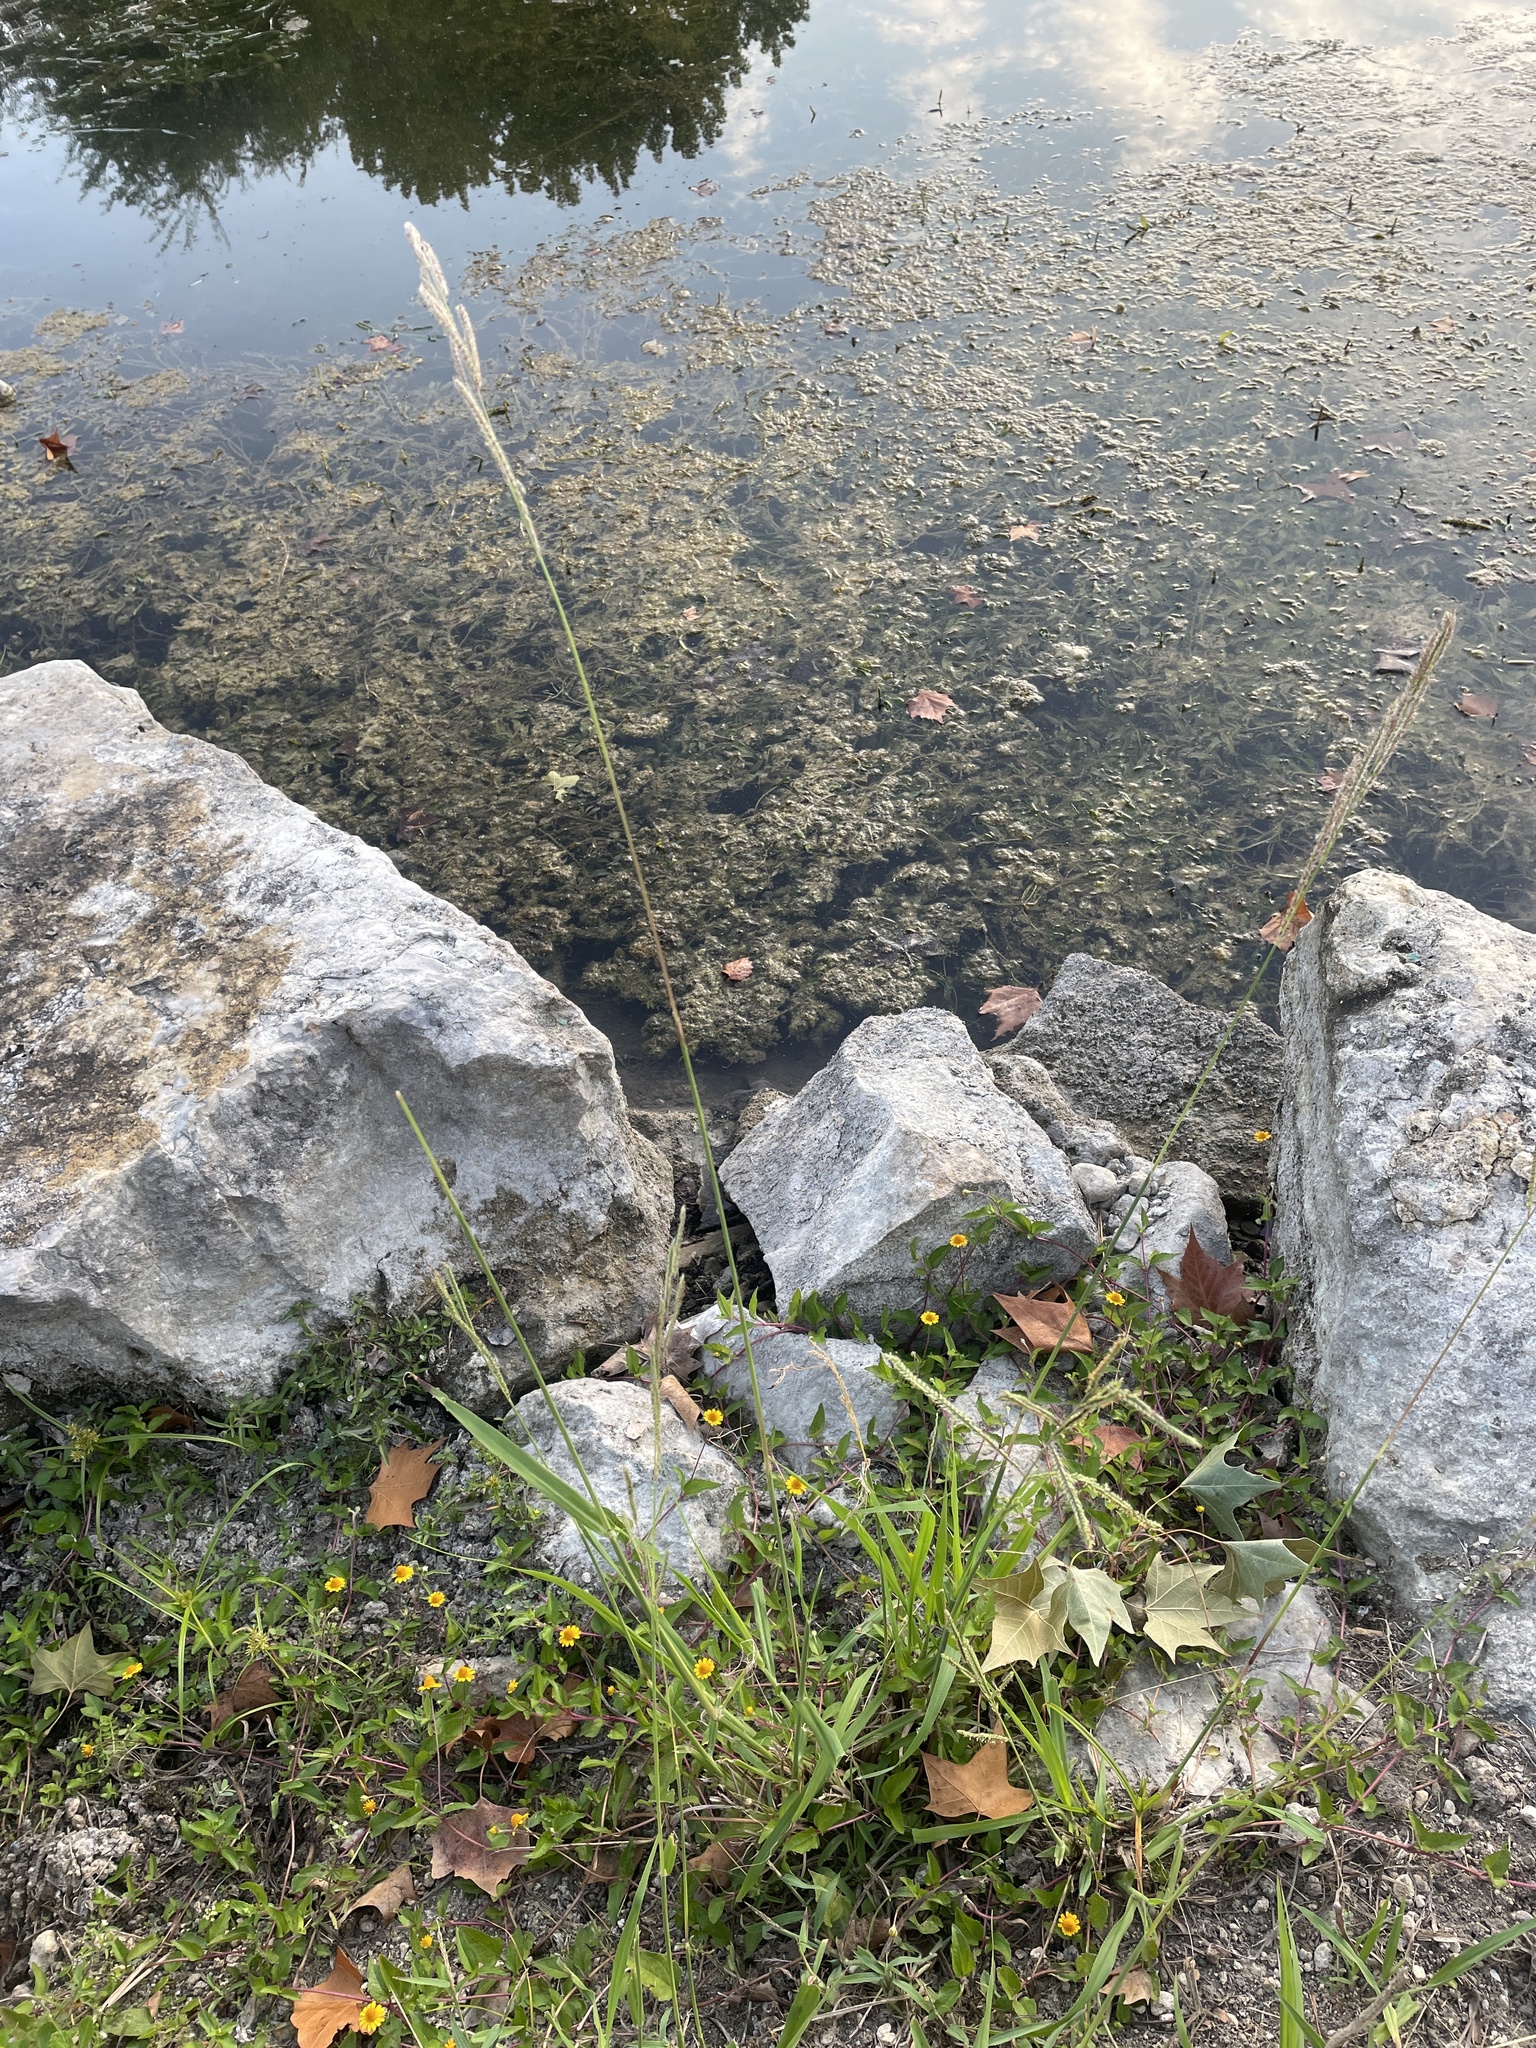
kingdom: Plantae
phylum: Tracheophyta
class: Liliopsida
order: Poales
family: Poaceae
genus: Paspalum
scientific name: Paspalum urvillei
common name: Vasey's grass
